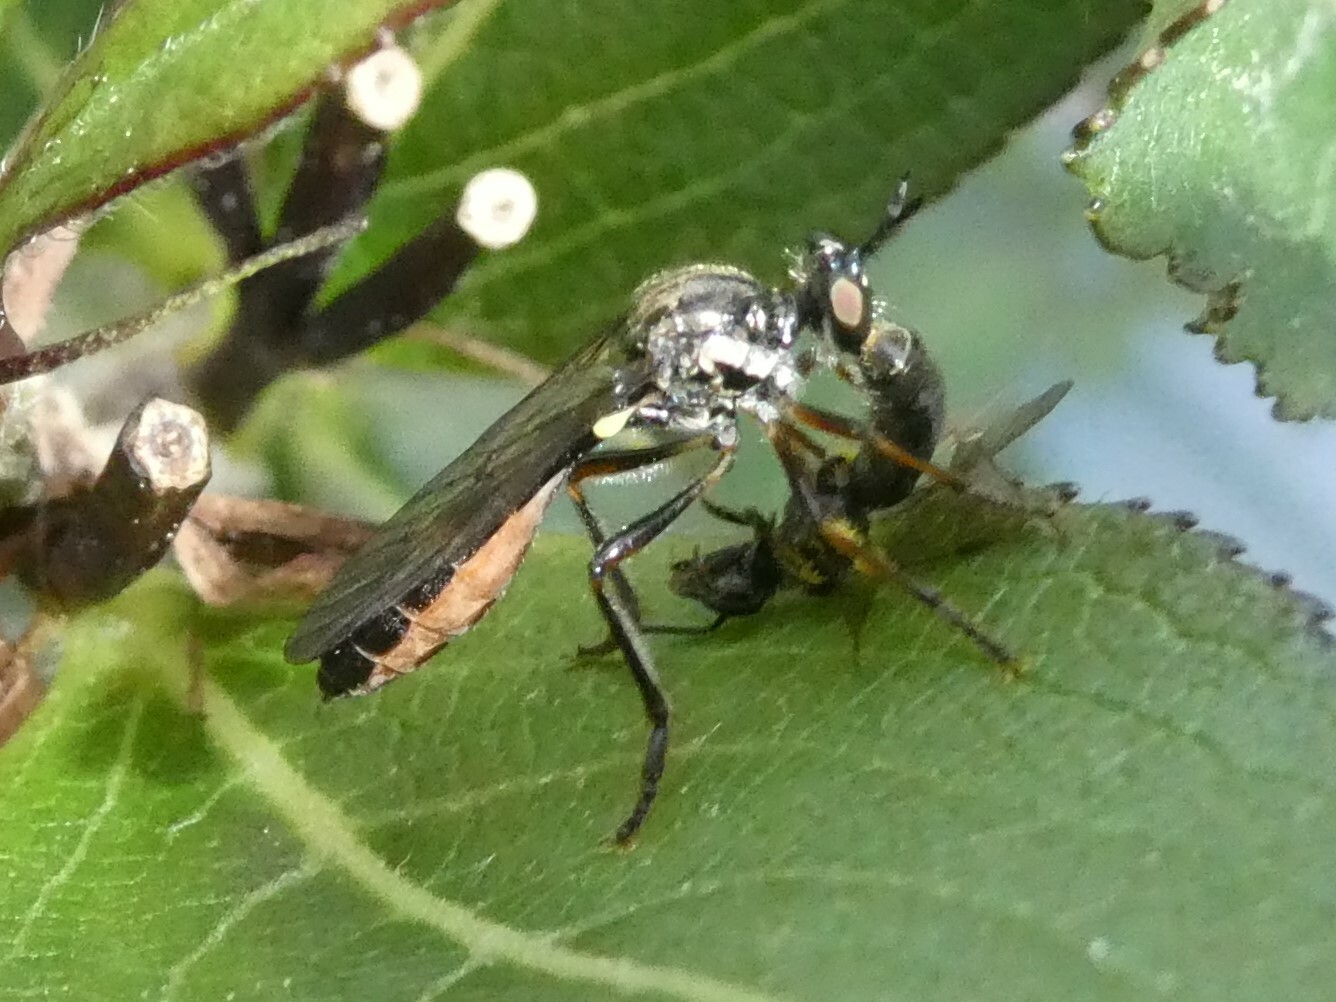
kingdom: Animalia
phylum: Arthropoda
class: Insecta
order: Diptera
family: Asilidae
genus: Dioctria
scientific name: Dioctria hyalipennis
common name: Stripe-legged robberfly
